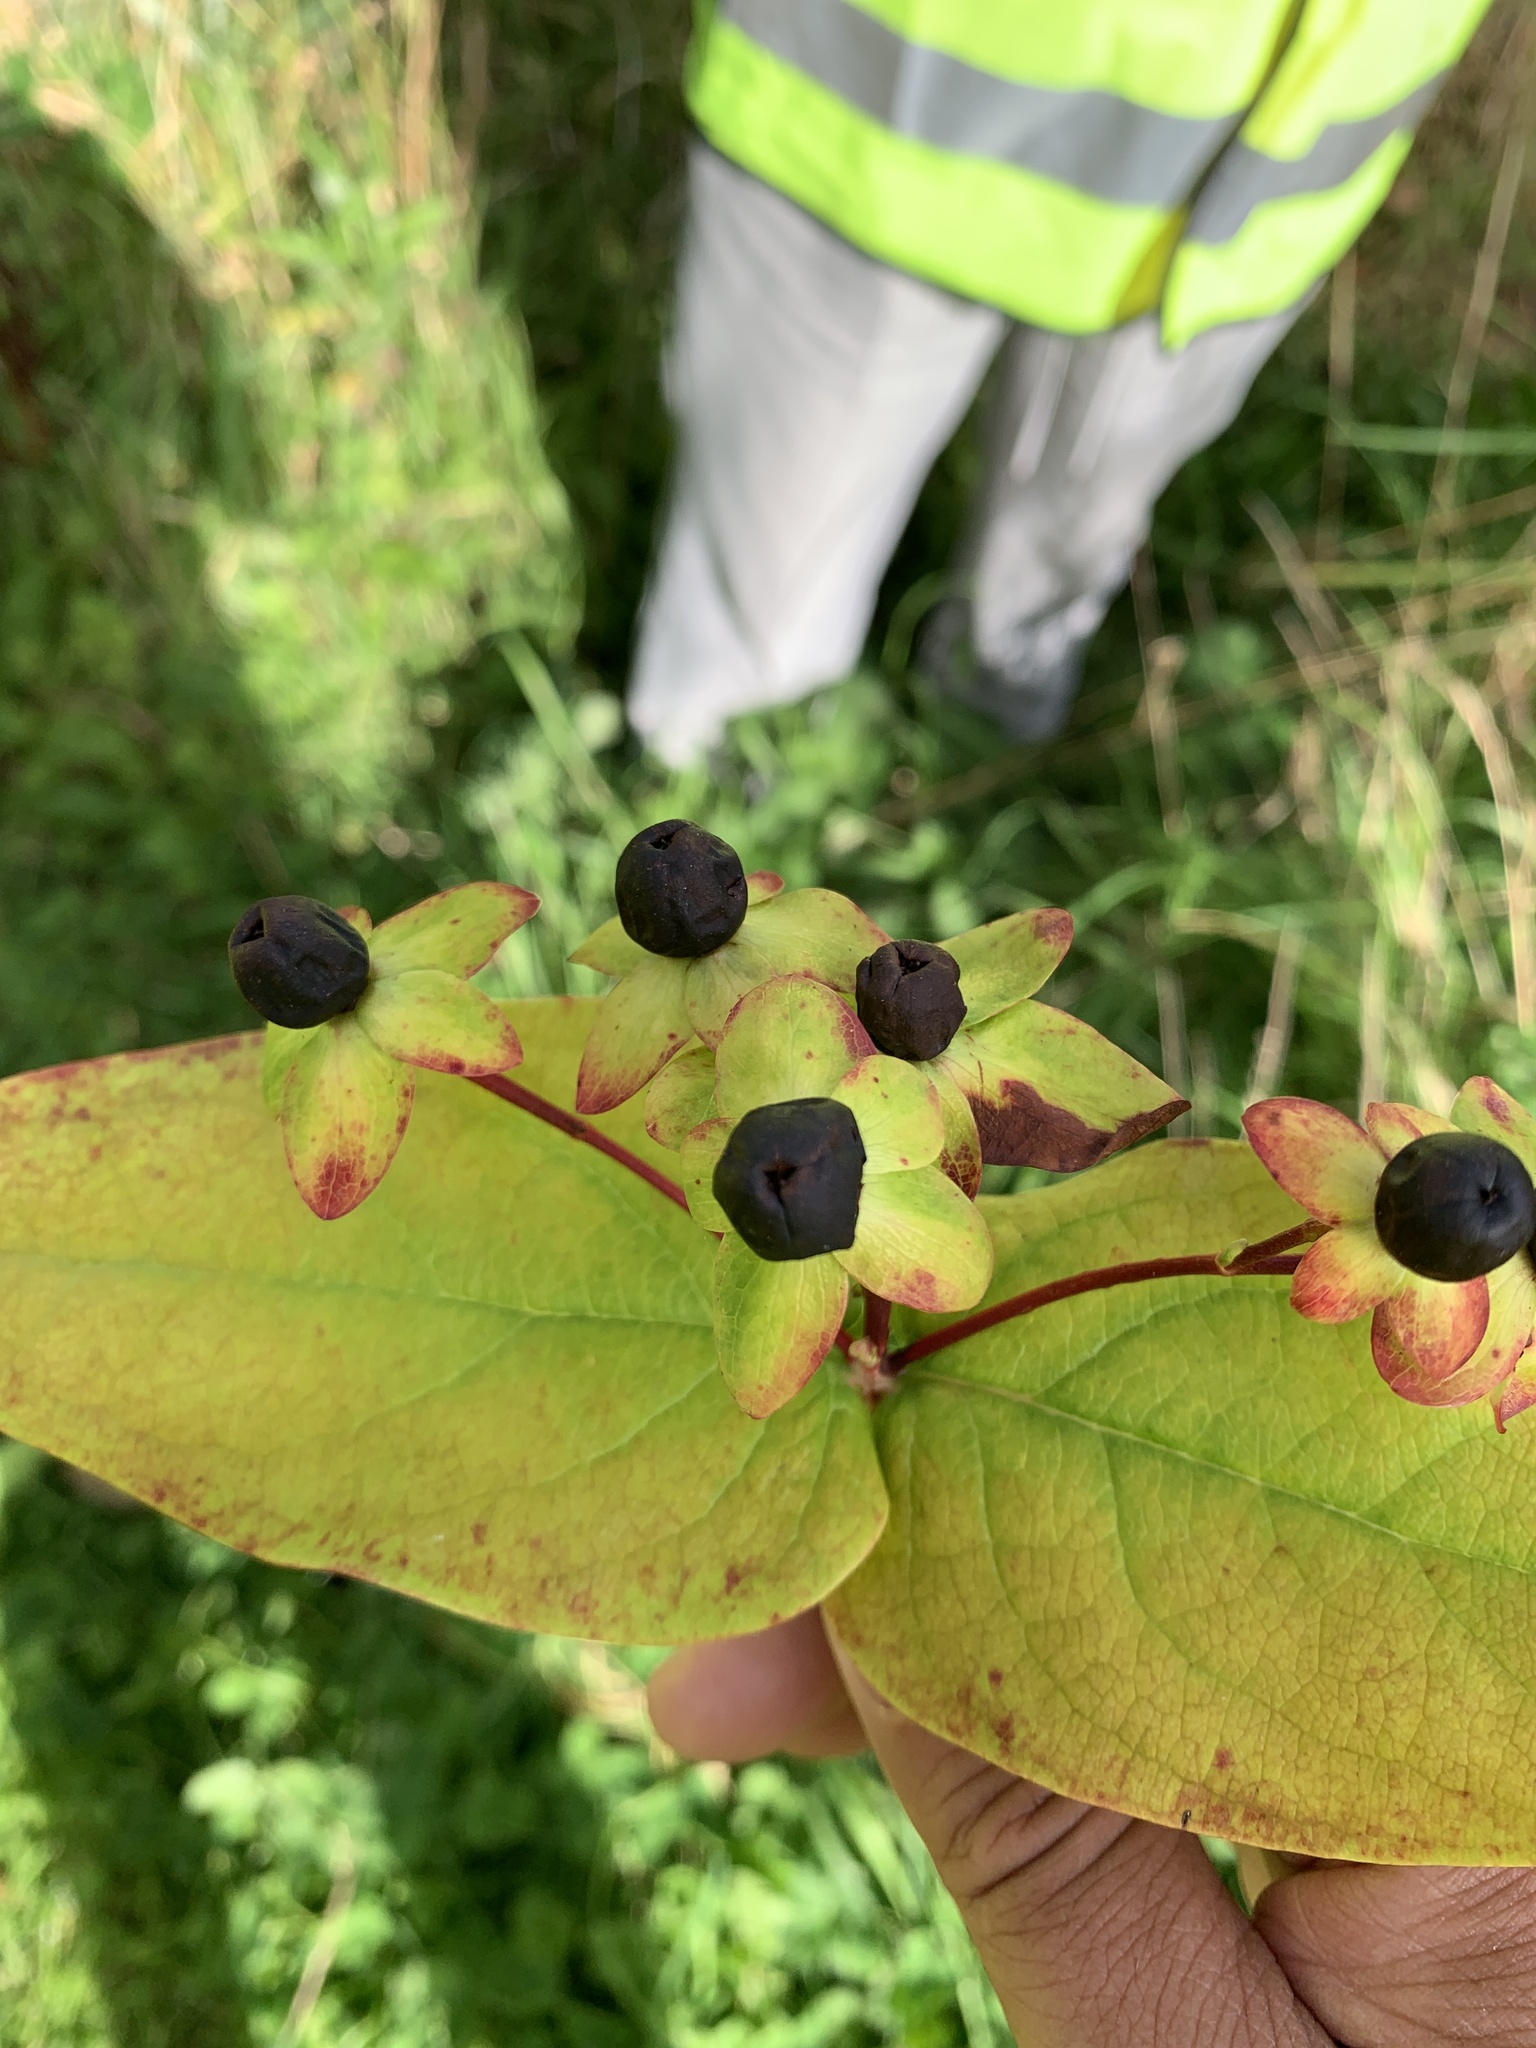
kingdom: Plantae
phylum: Tracheophyta
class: Magnoliopsida
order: Malpighiales
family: Hypericaceae
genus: Hypericum
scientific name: Hypericum androsaemum
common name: Sweet-amber
